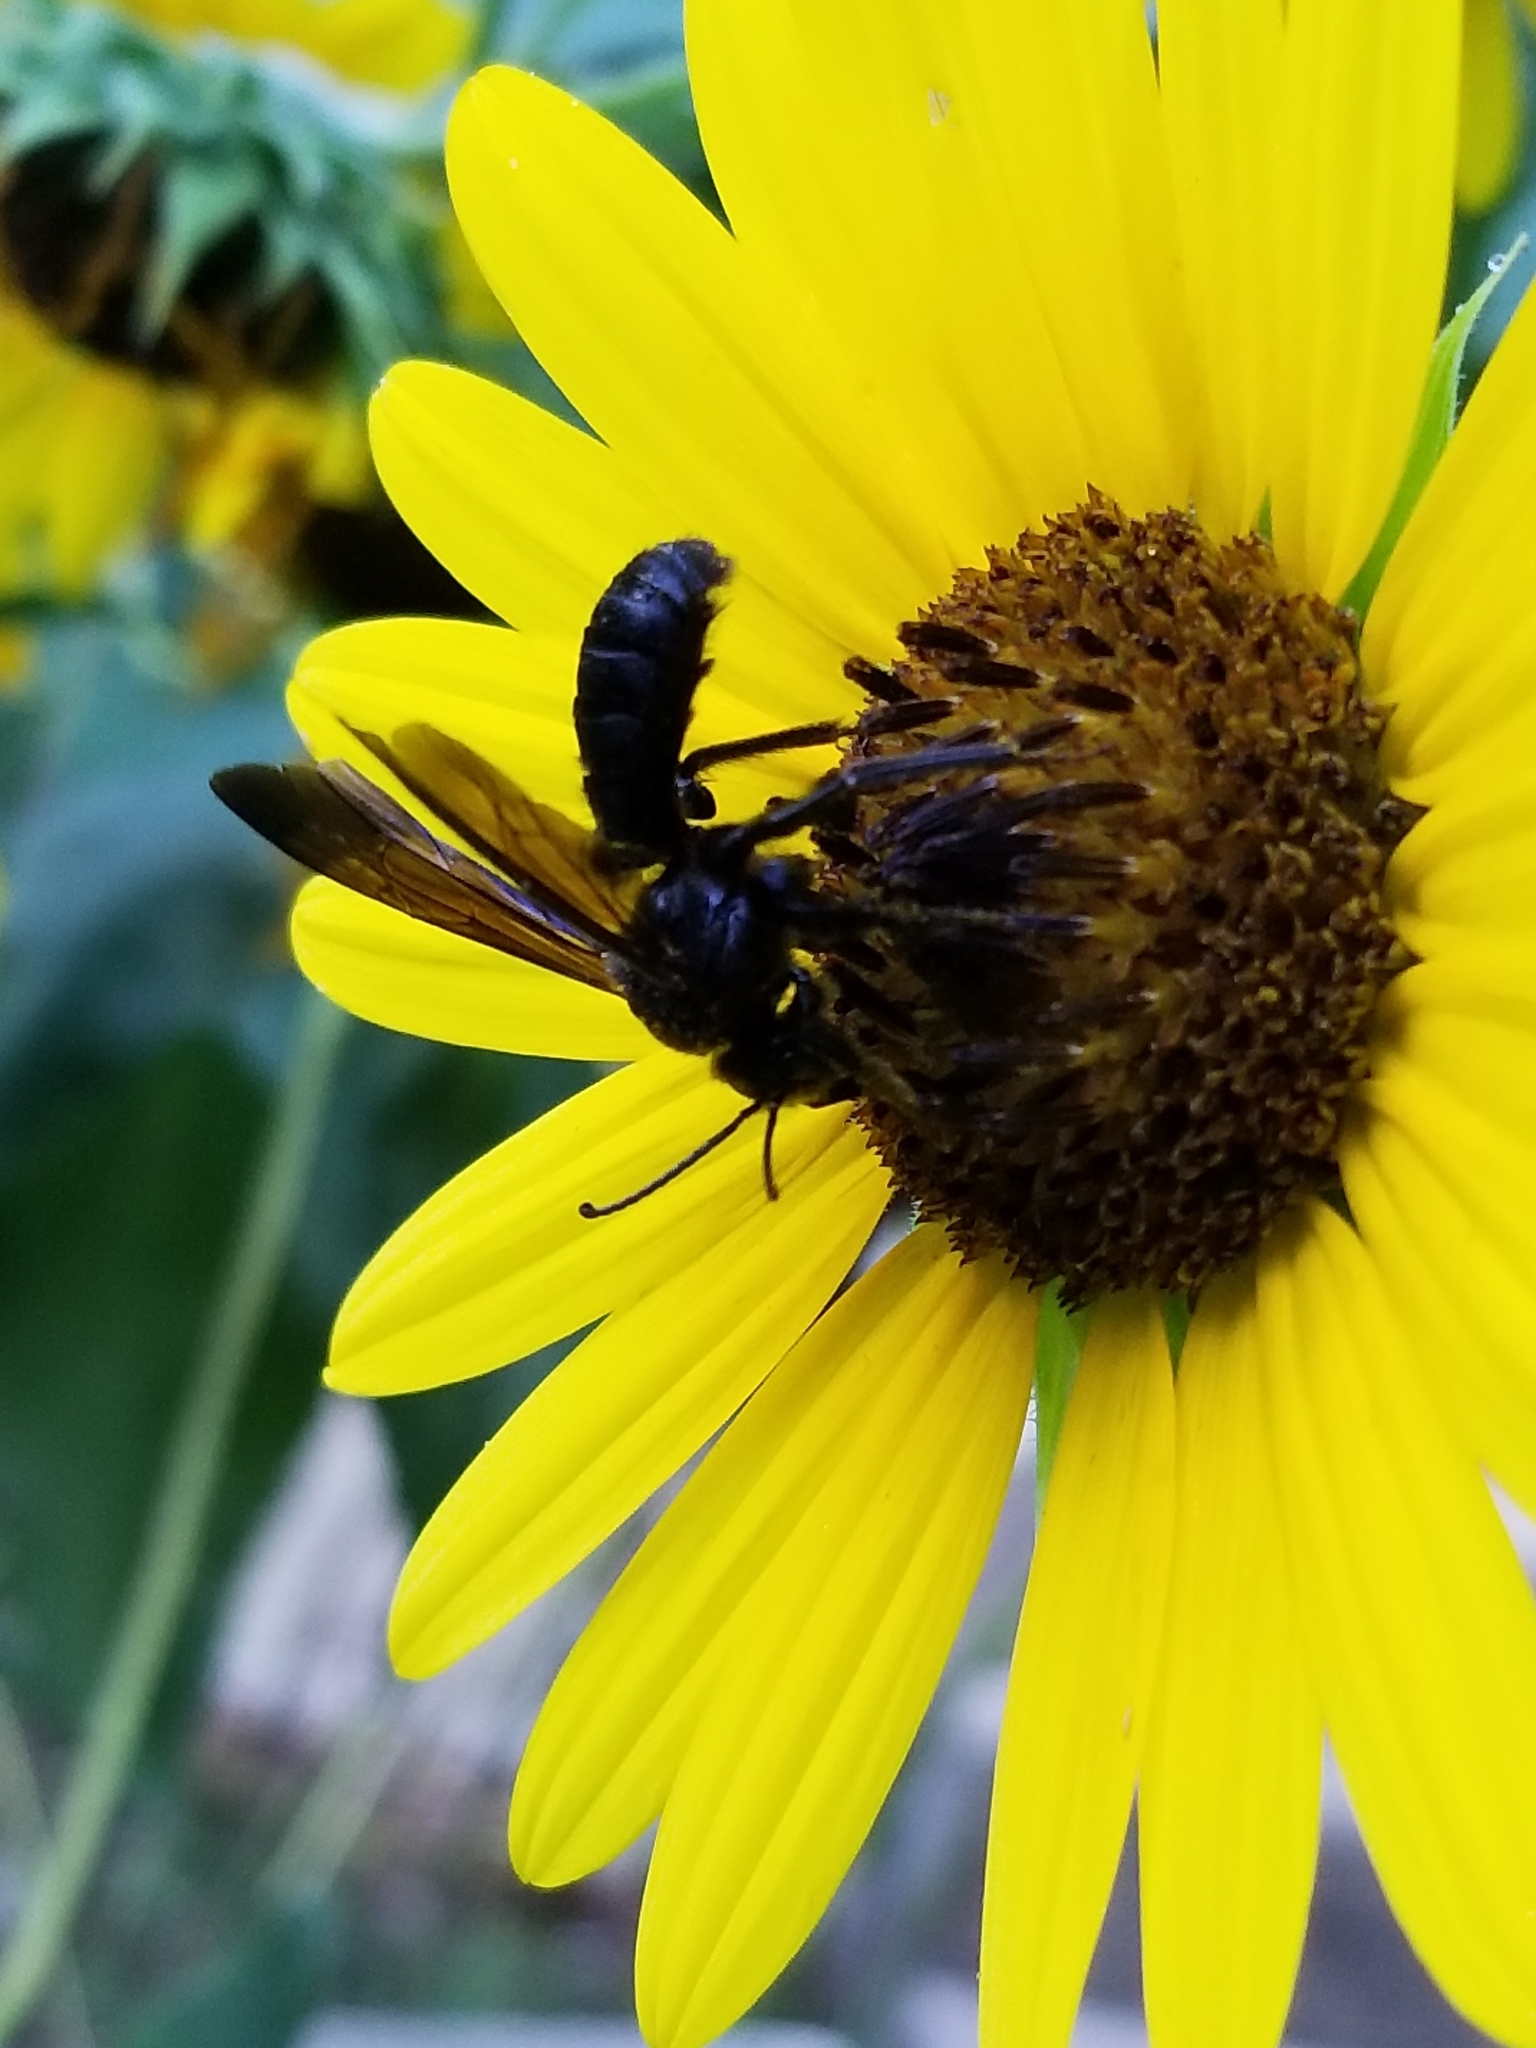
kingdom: Animalia
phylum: Arthropoda
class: Insecta
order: Hymenoptera
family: Halictidae
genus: Dieunomia
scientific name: Dieunomia heteropoda
